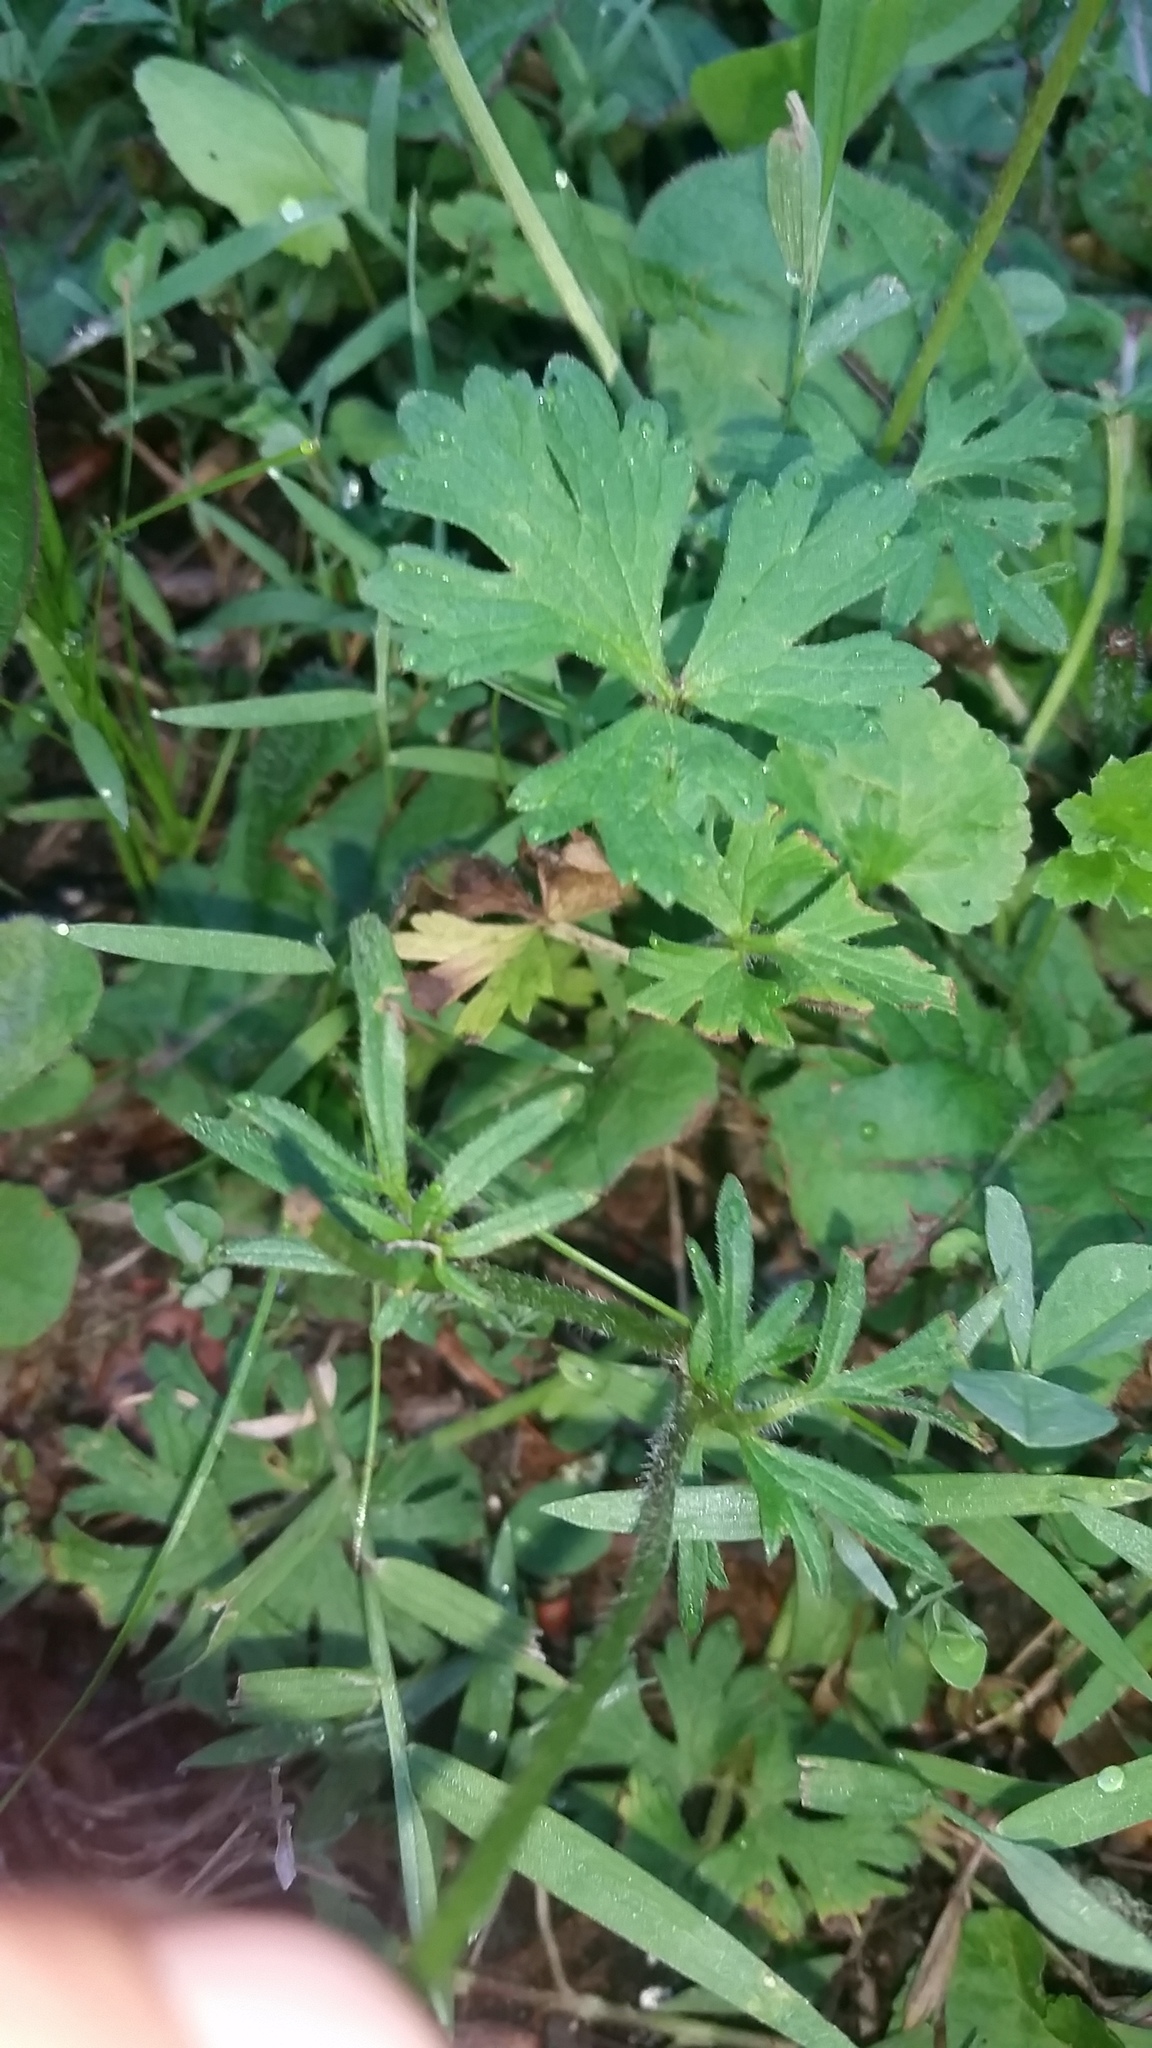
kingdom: Plantae
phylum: Tracheophyta
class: Magnoliopsida
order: Ranunculales
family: Ranunculaceae
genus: Ranunculus
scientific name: Ranunculus bulbosus
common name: Bulbous buttercup
